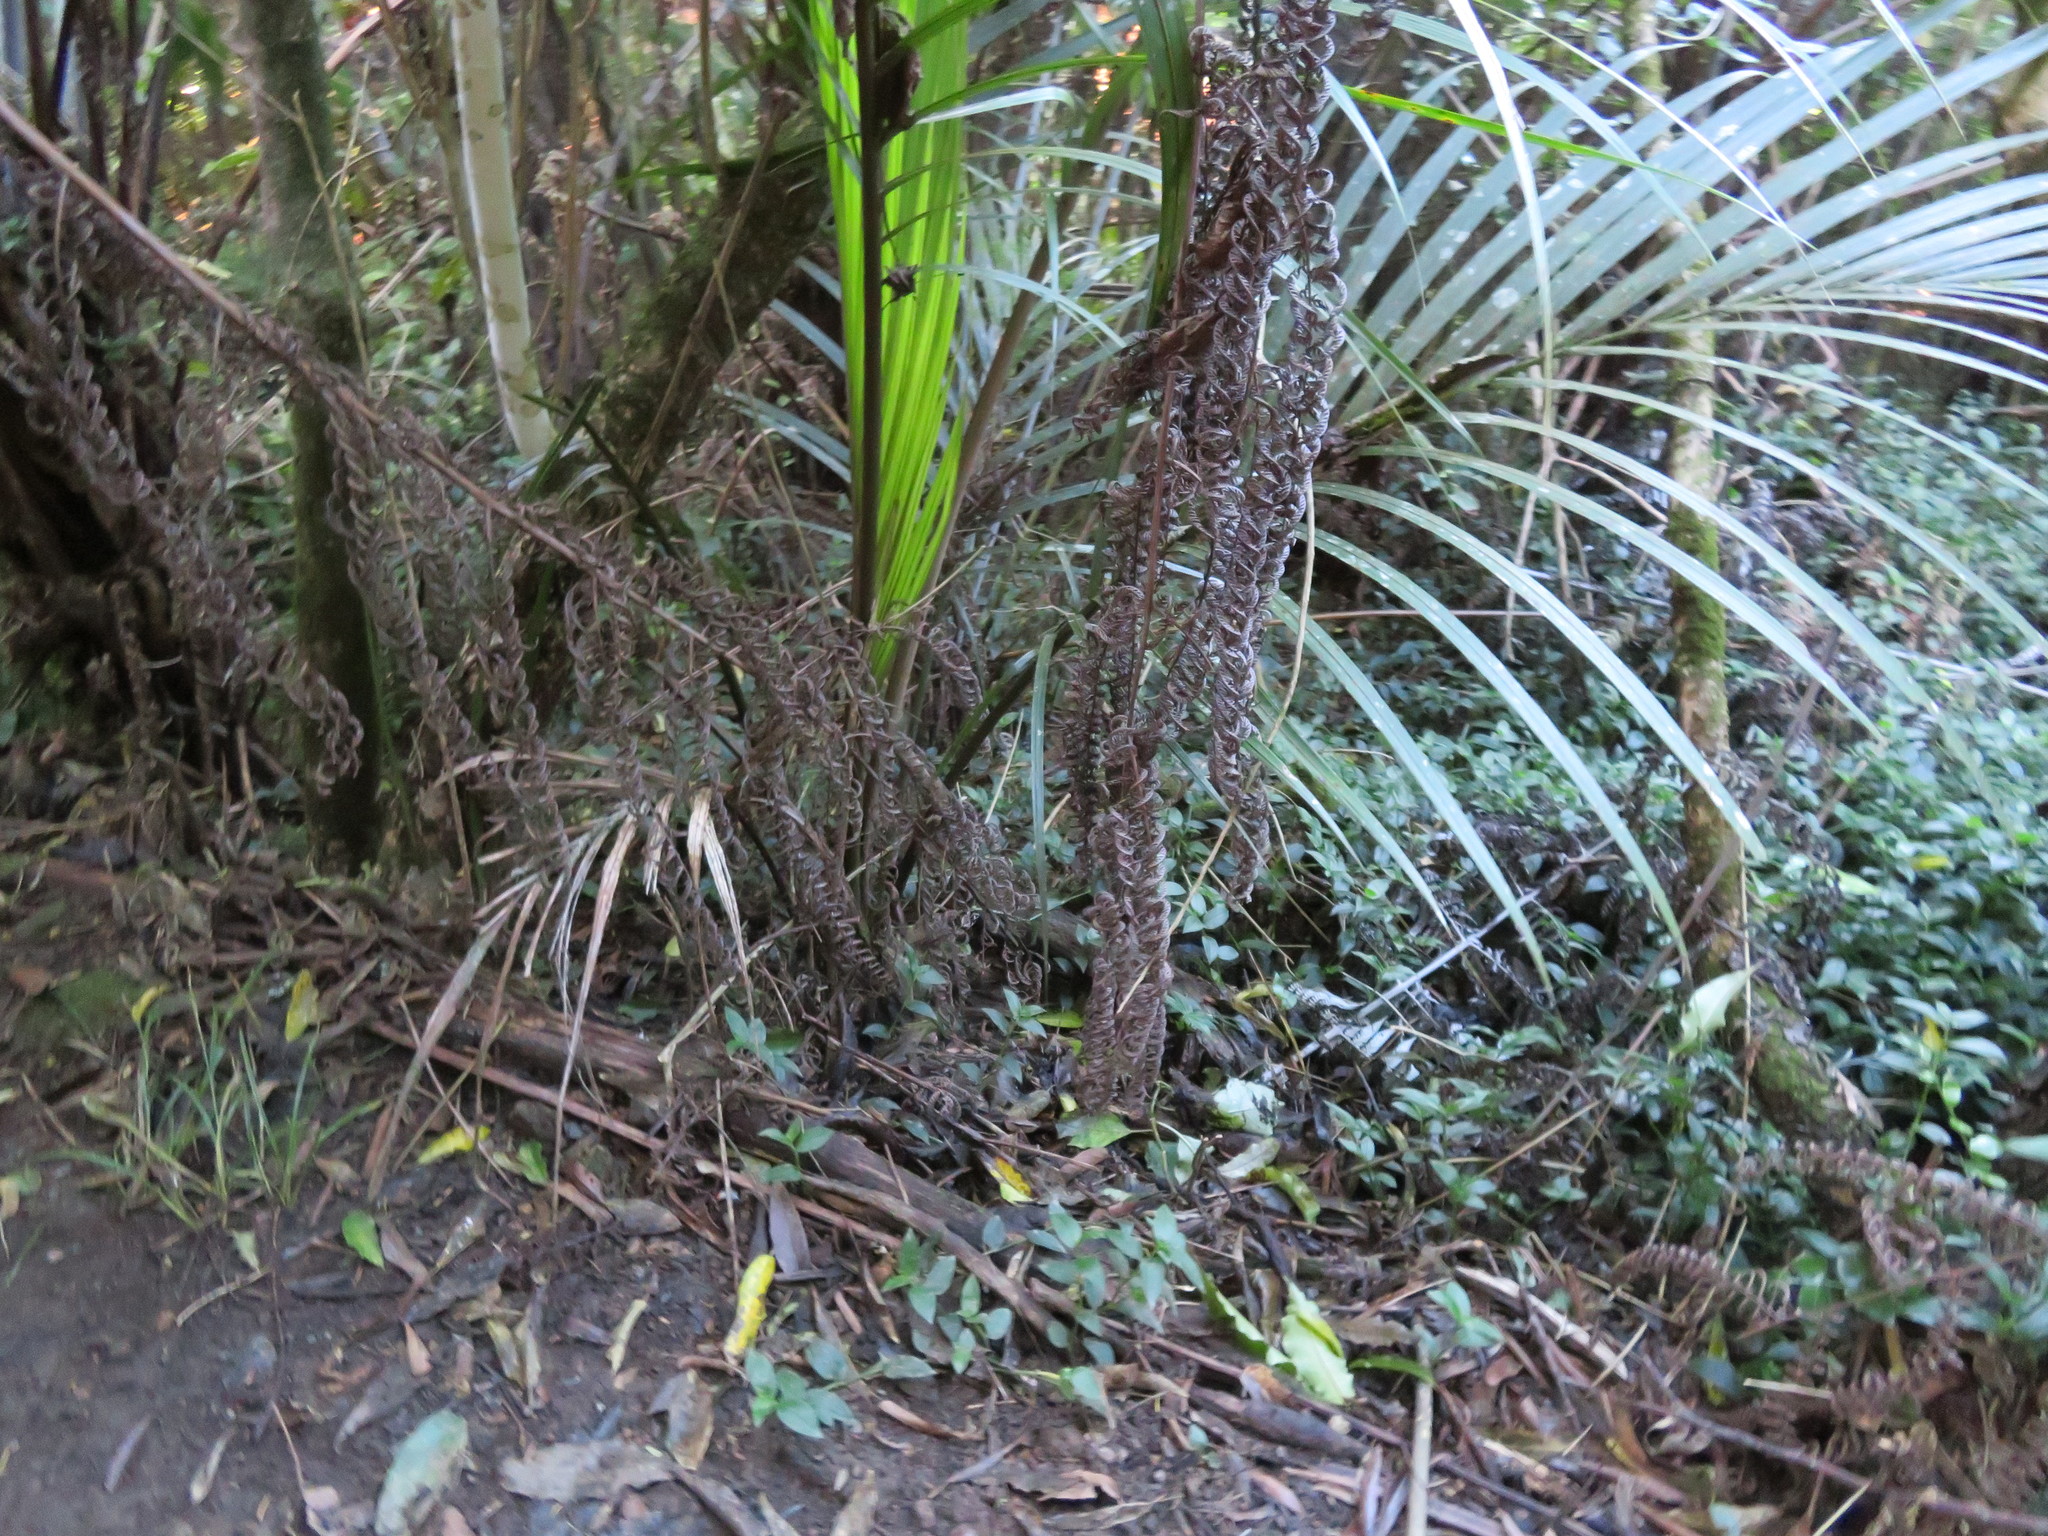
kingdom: Plantae
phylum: Tracheophyta
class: Liliopsida
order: Arecales
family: Arecaceae
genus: Rhopalostylis
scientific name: Rhopalostylis sapida
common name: Feather-duster palm
